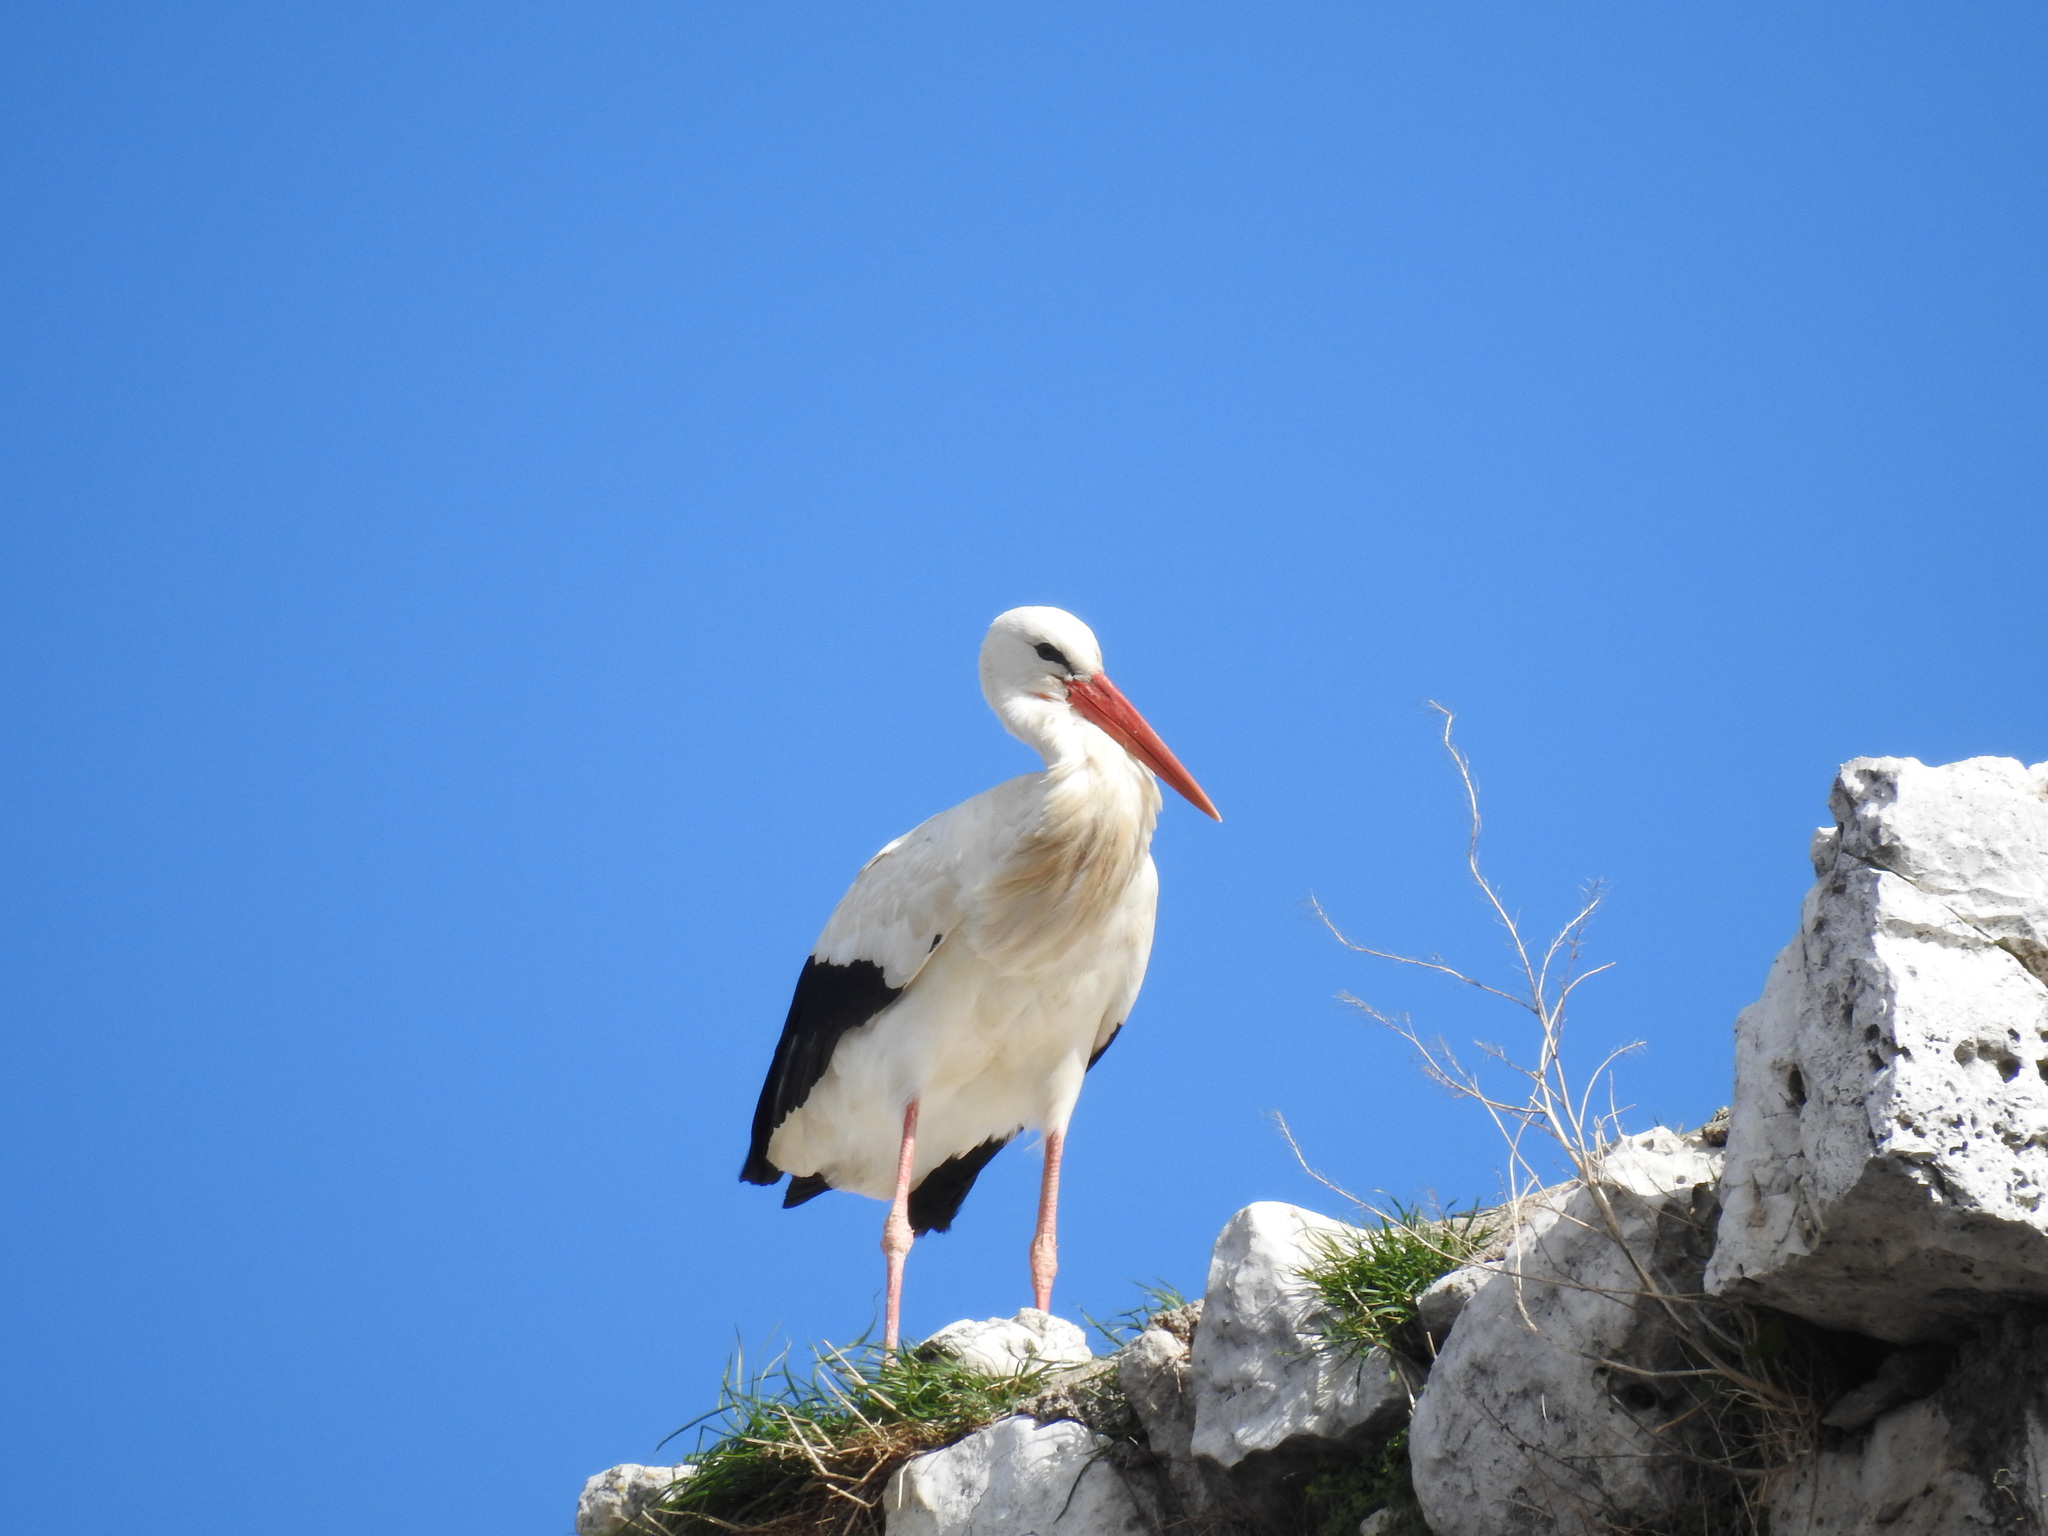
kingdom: Animalia
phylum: Chordata
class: Aves
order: Ciconiiformes
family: Ciconiidae
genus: Ciconia
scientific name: Ciconia ciconia
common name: White stork
